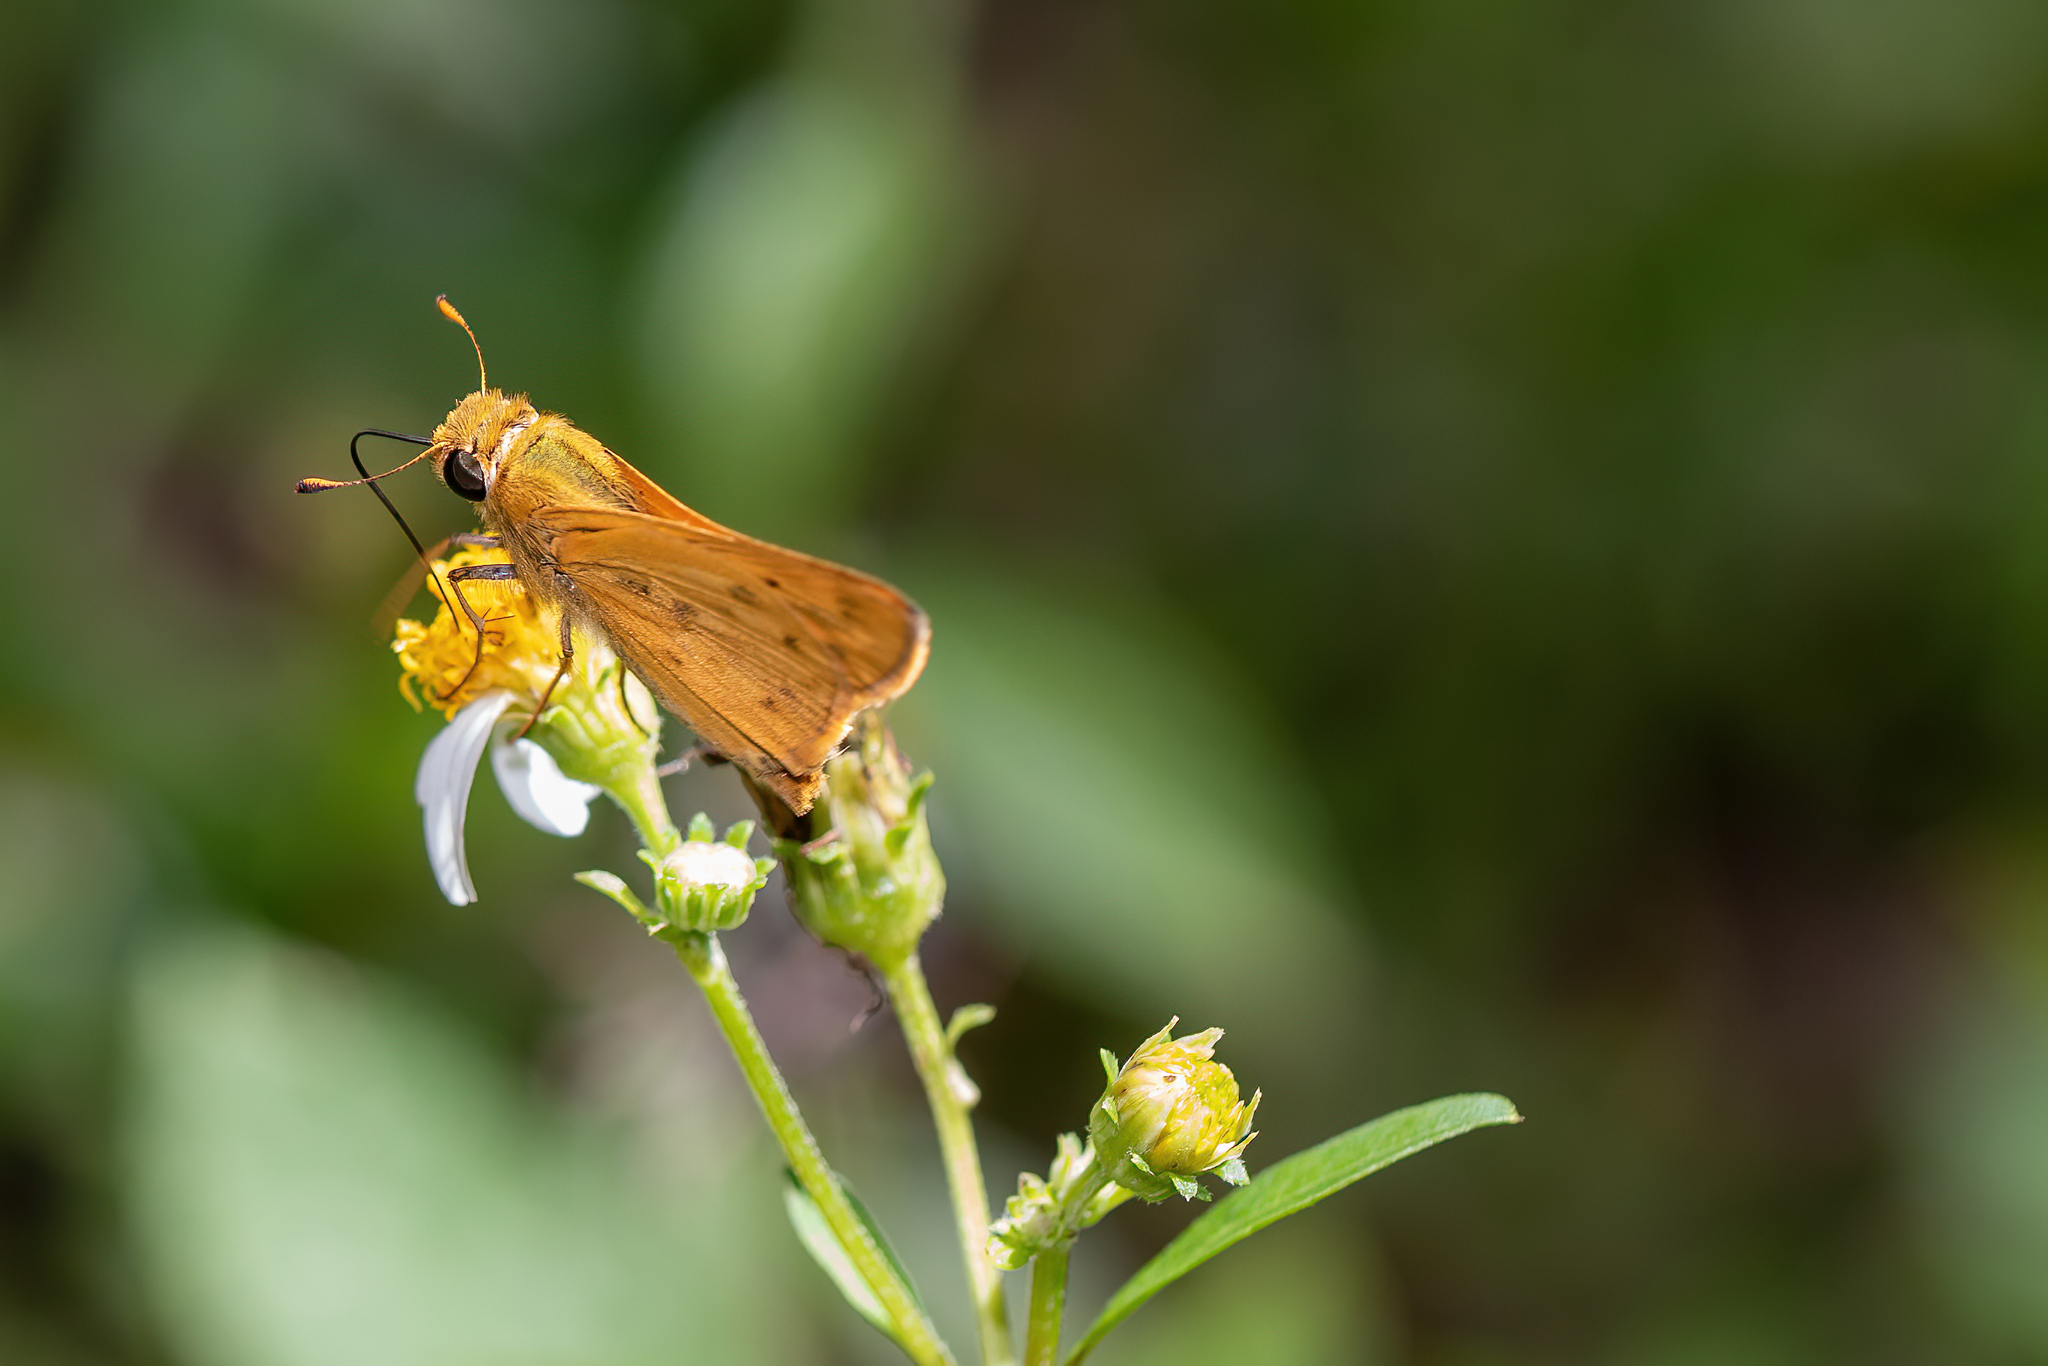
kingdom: Animalia
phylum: Arthropoda
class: Insecta
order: Lepidoptera
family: Hesperiidae
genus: Hylephila
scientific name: Hylephila phyleus
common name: Fiery skipper
